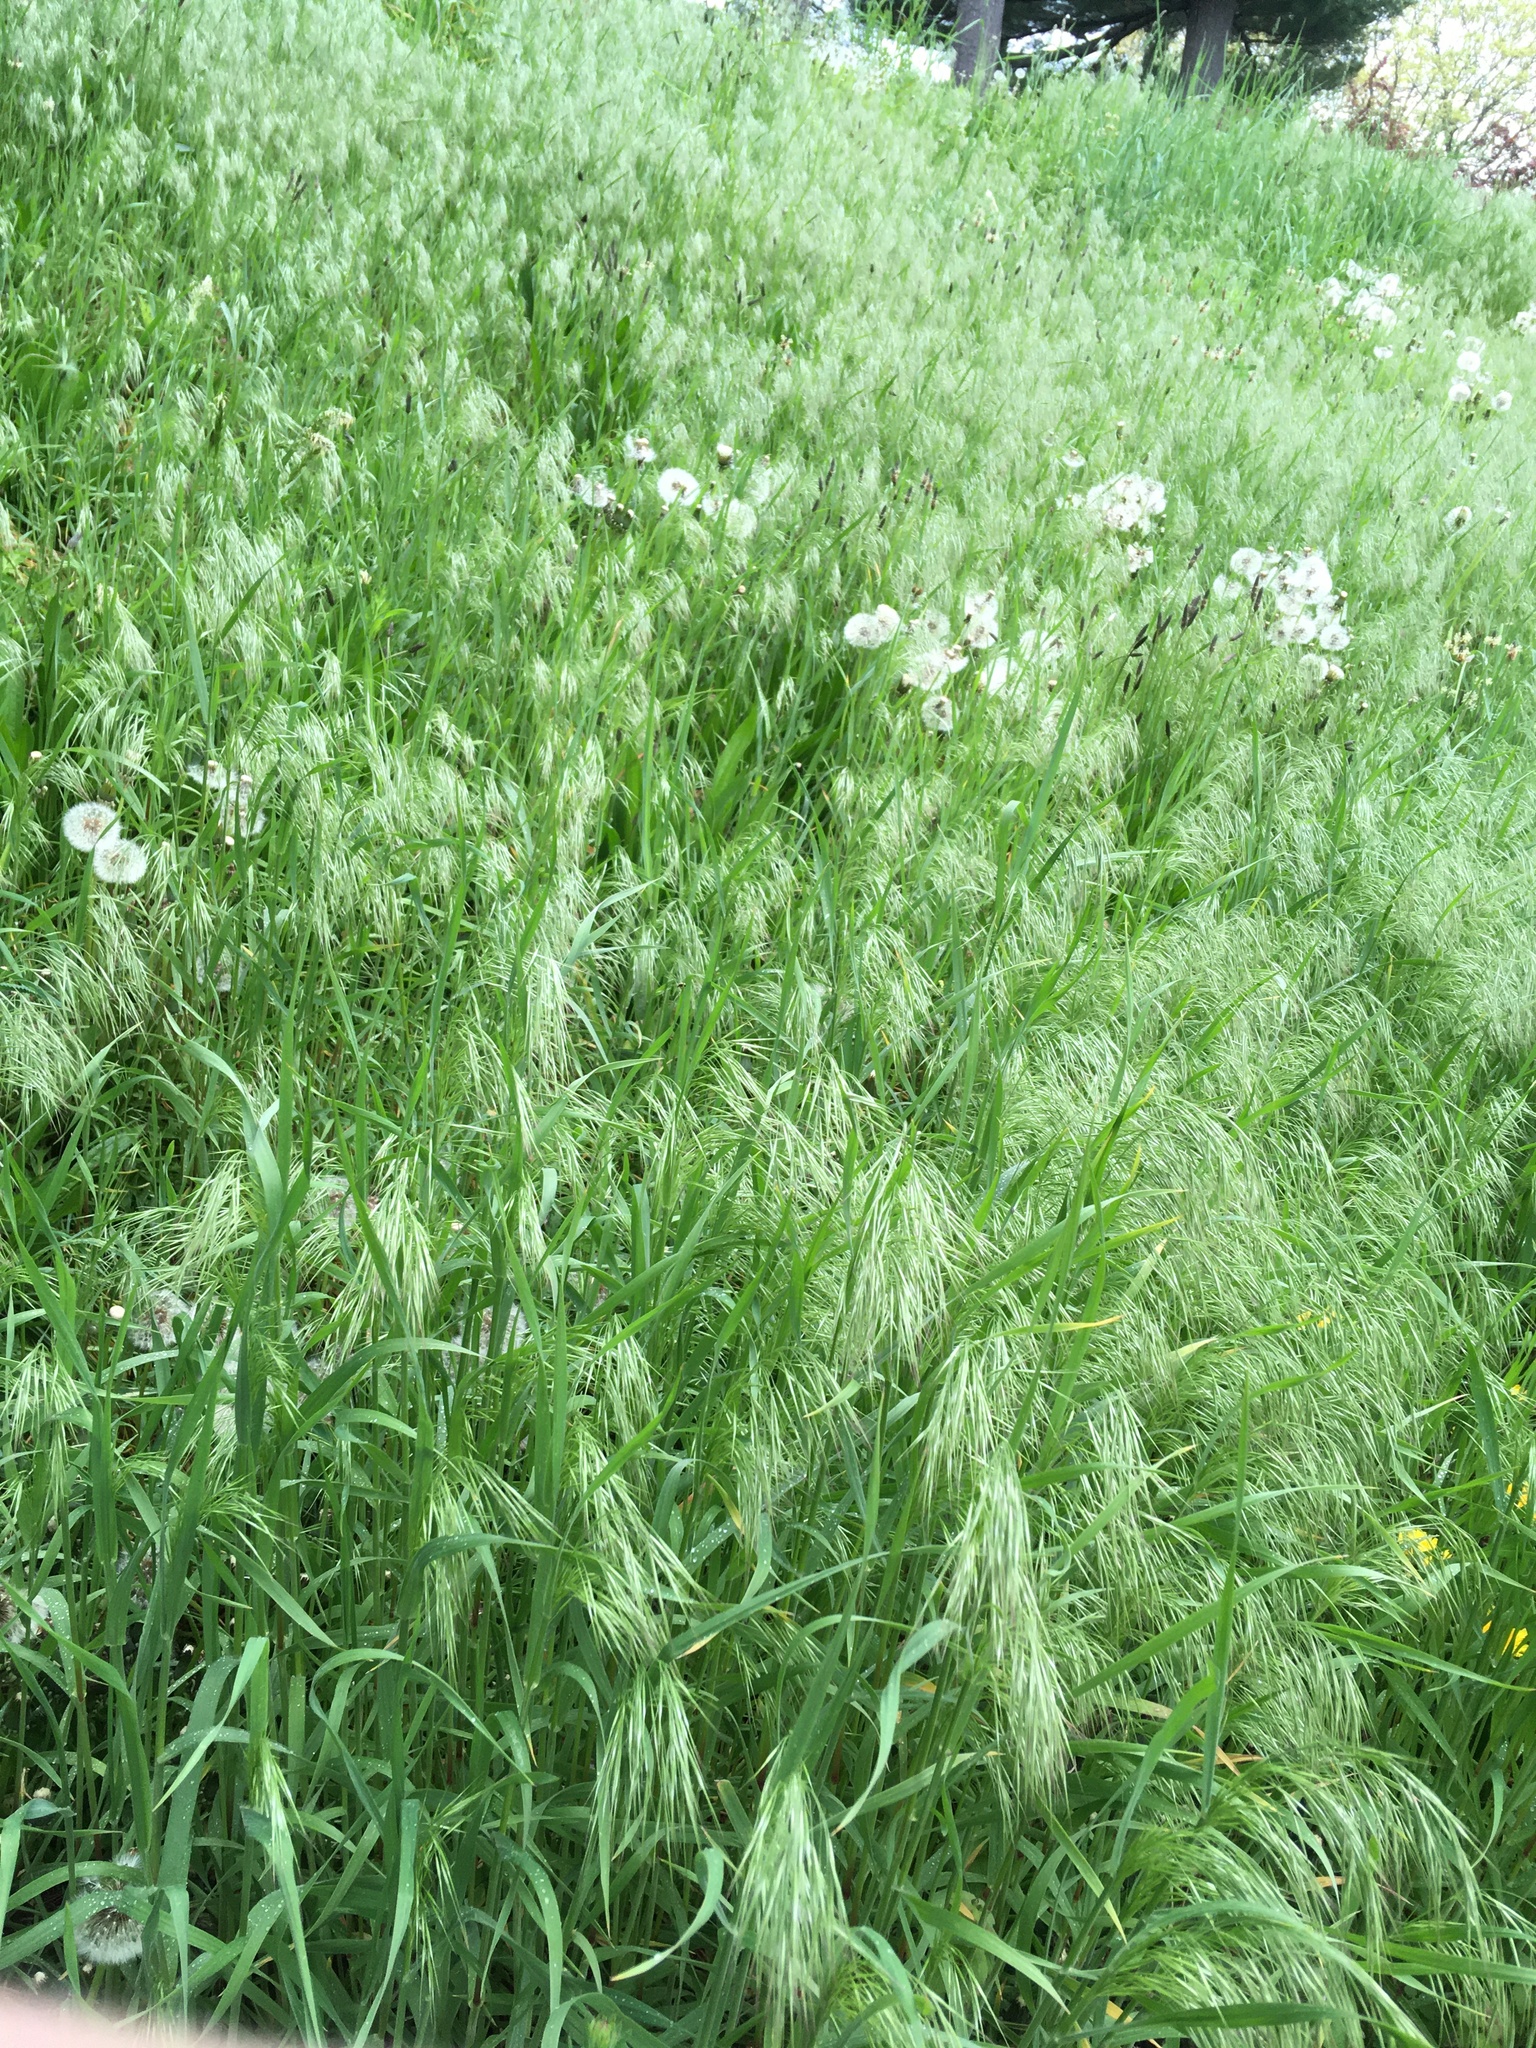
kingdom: Plantae
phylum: Tracheophyta
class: Liliopsida
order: Poales
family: Poaceae
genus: Bromus
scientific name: Bromus tectorum
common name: Cheatgrass
